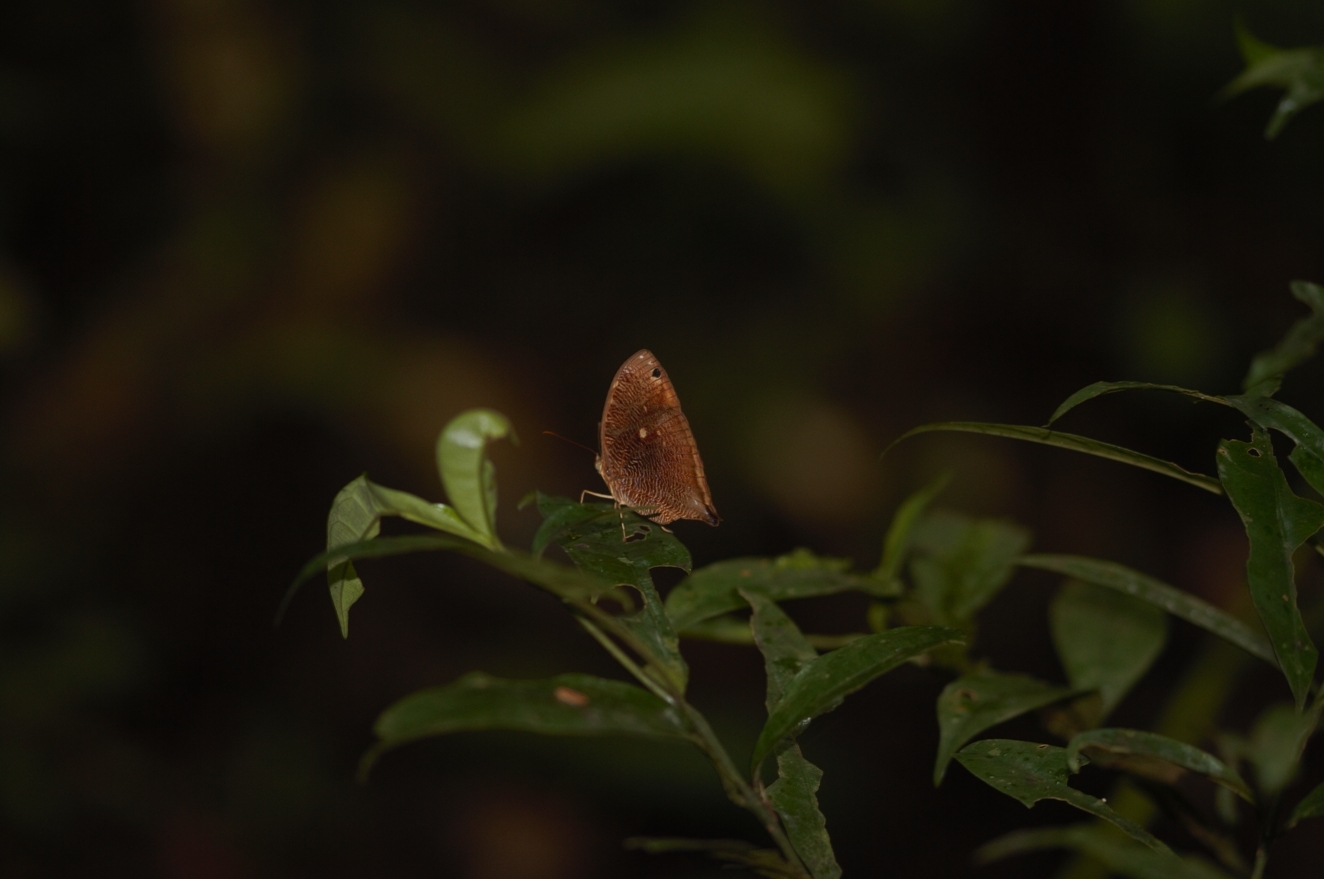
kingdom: Animalia
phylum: Arthropoda
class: Insecta
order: Lepidoptera
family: Nymphalidae
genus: Bia
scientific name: Bia decaerulea
